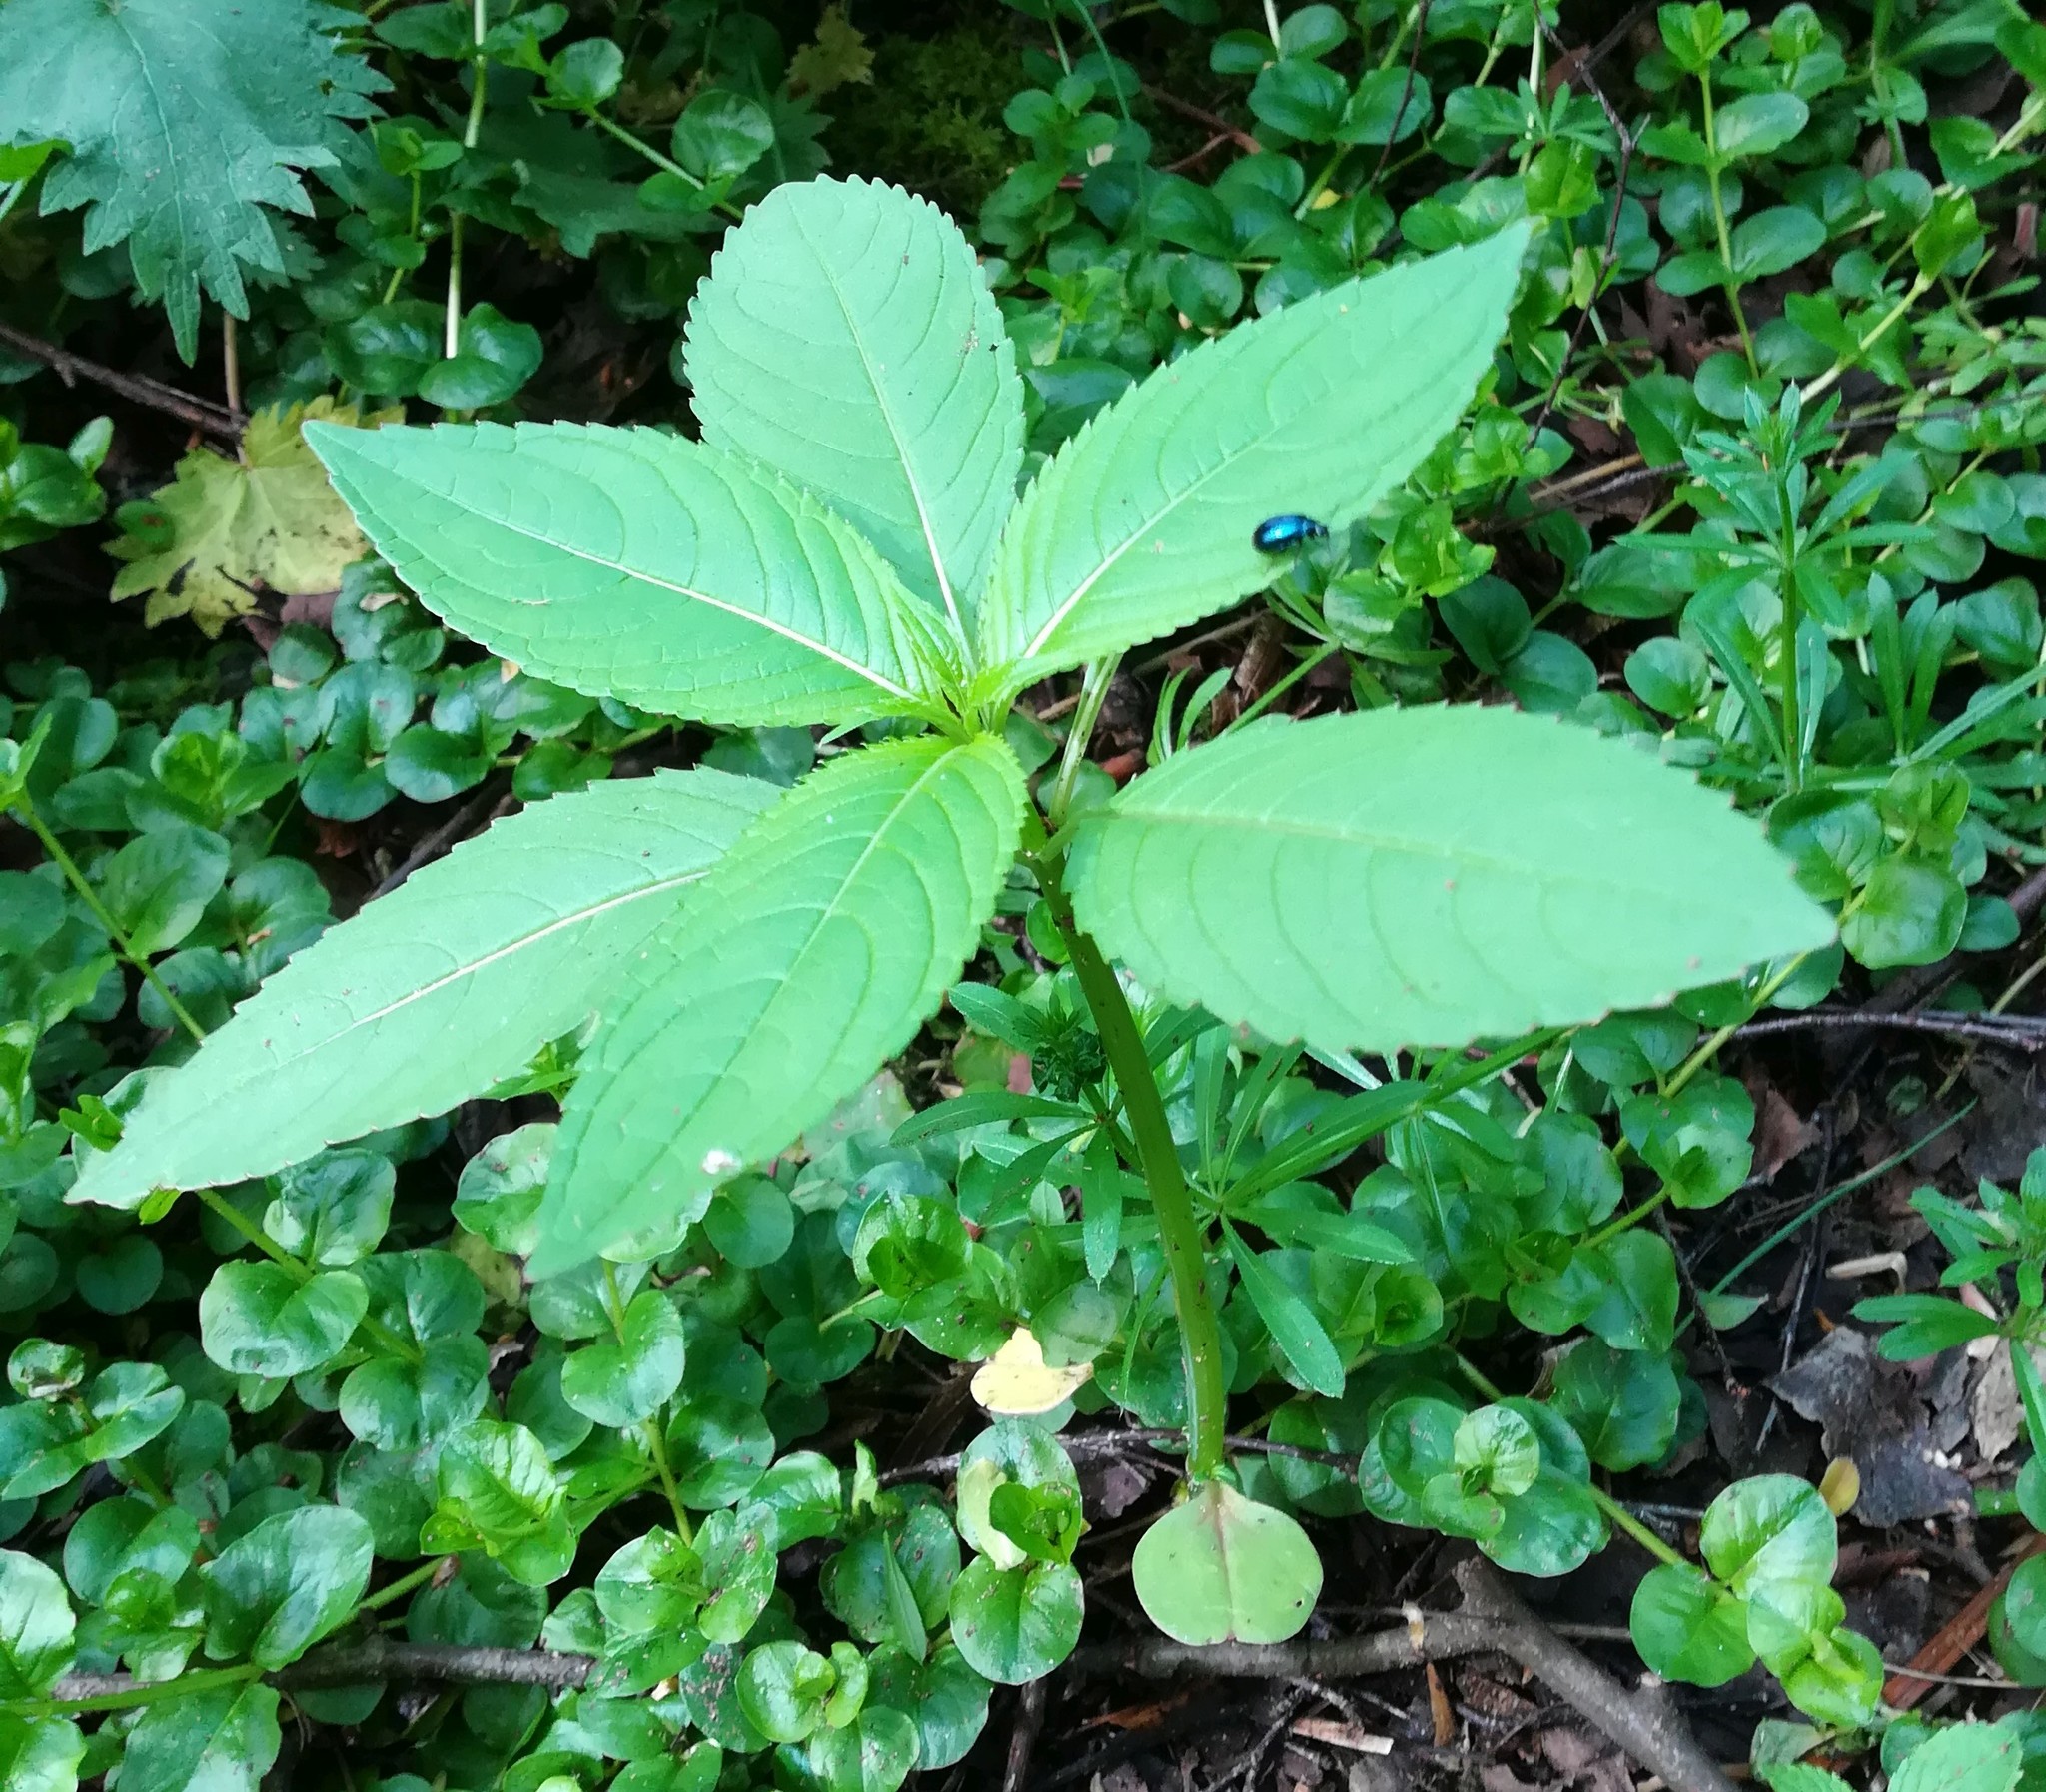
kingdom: Plantae
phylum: Tracheophyta
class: Magnoliopsida
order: Ericales
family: Balsaminaceae
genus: Impatiens
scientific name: Impatiens glandulifera
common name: Himalayan balsam
